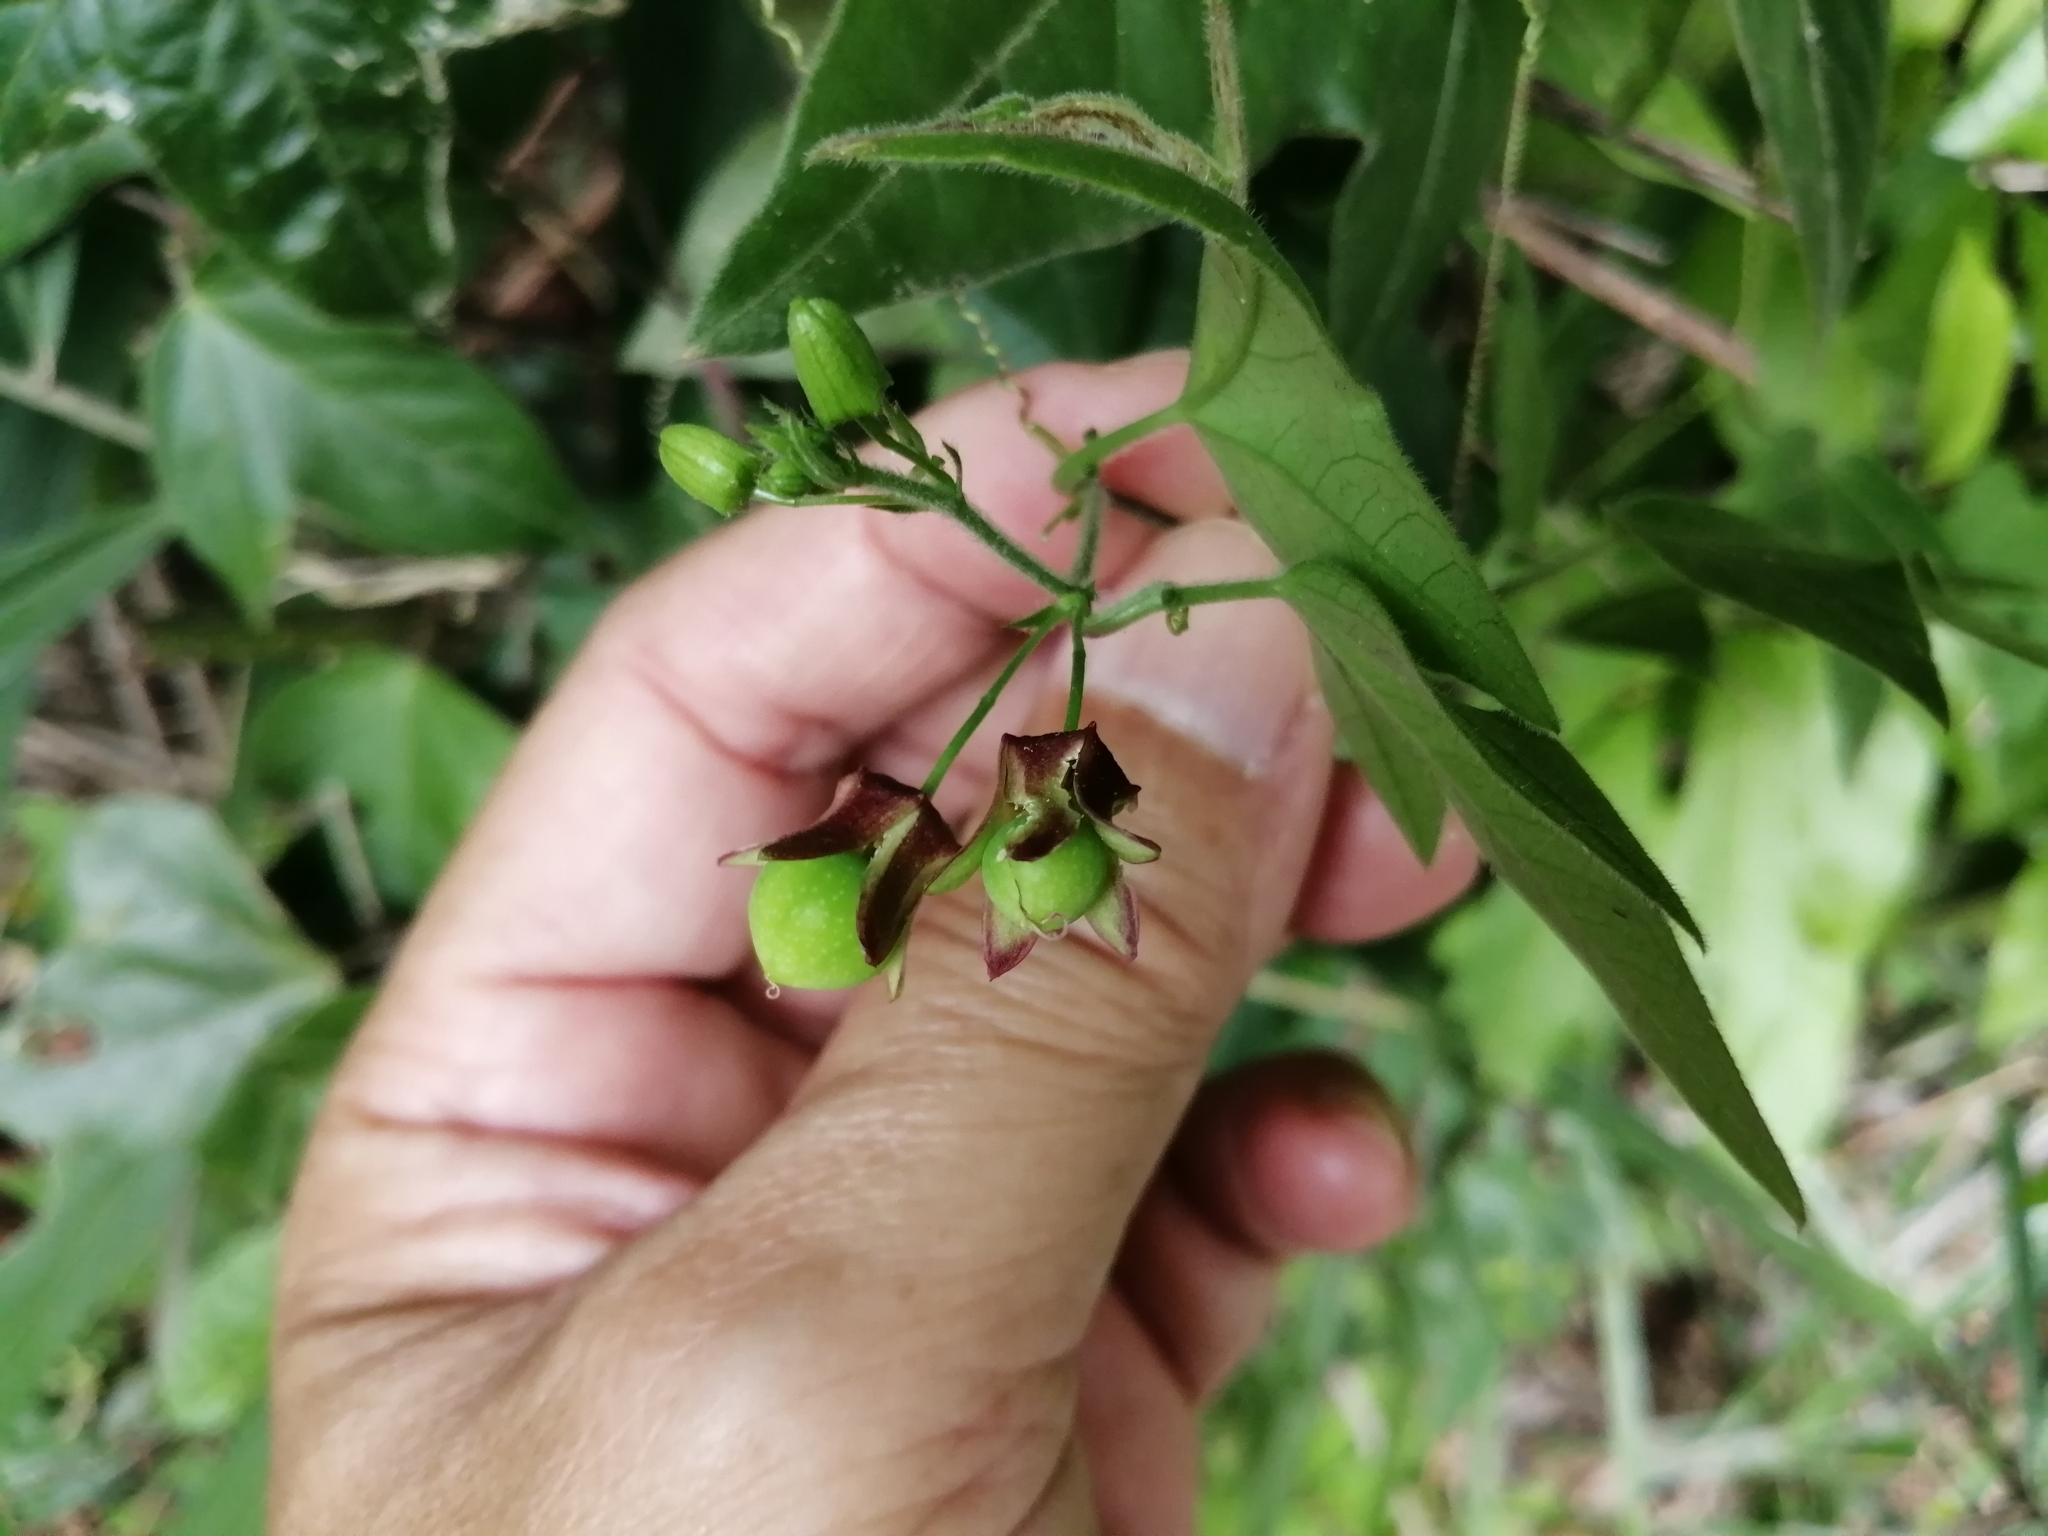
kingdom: Plantae
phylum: Tracheophyta
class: Magnoliopsida
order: Malpighiales
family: Passifloraceae
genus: Passiflora
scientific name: Passiflora suberosa
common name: Wild passionfruit
